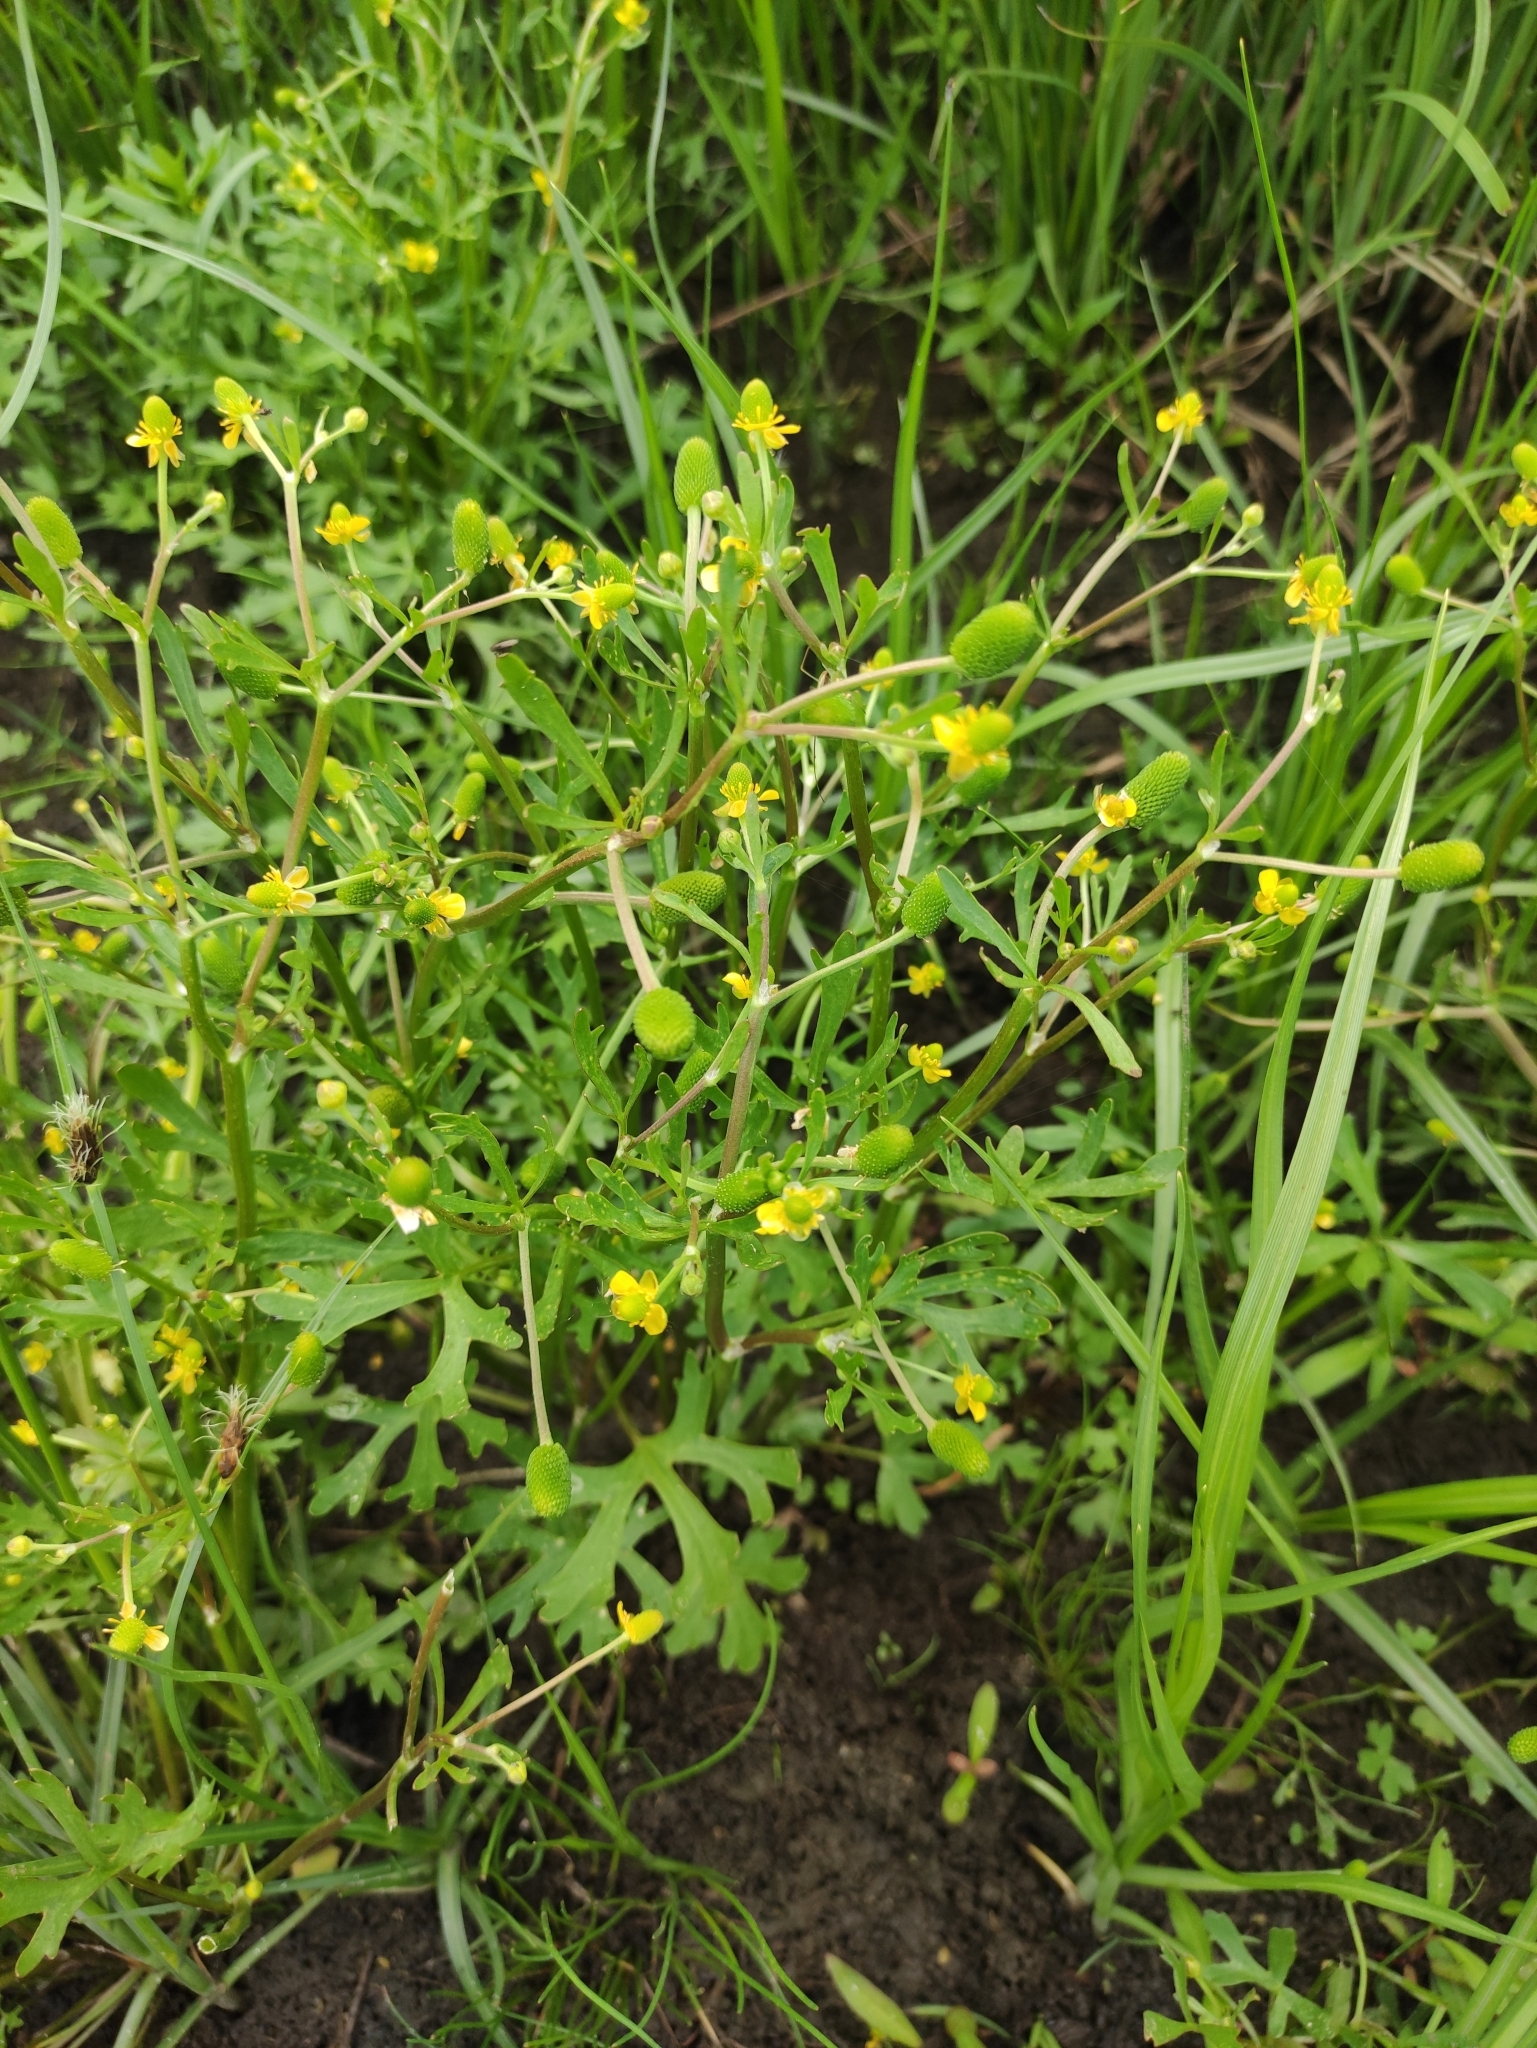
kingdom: Plantae
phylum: Tracheophyta
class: Magnoliopsida
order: Ranunculales
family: Ranunculaceae
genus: Ranunculus
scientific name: Ranunculus sceleratus
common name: Celery-leaved buttercup
